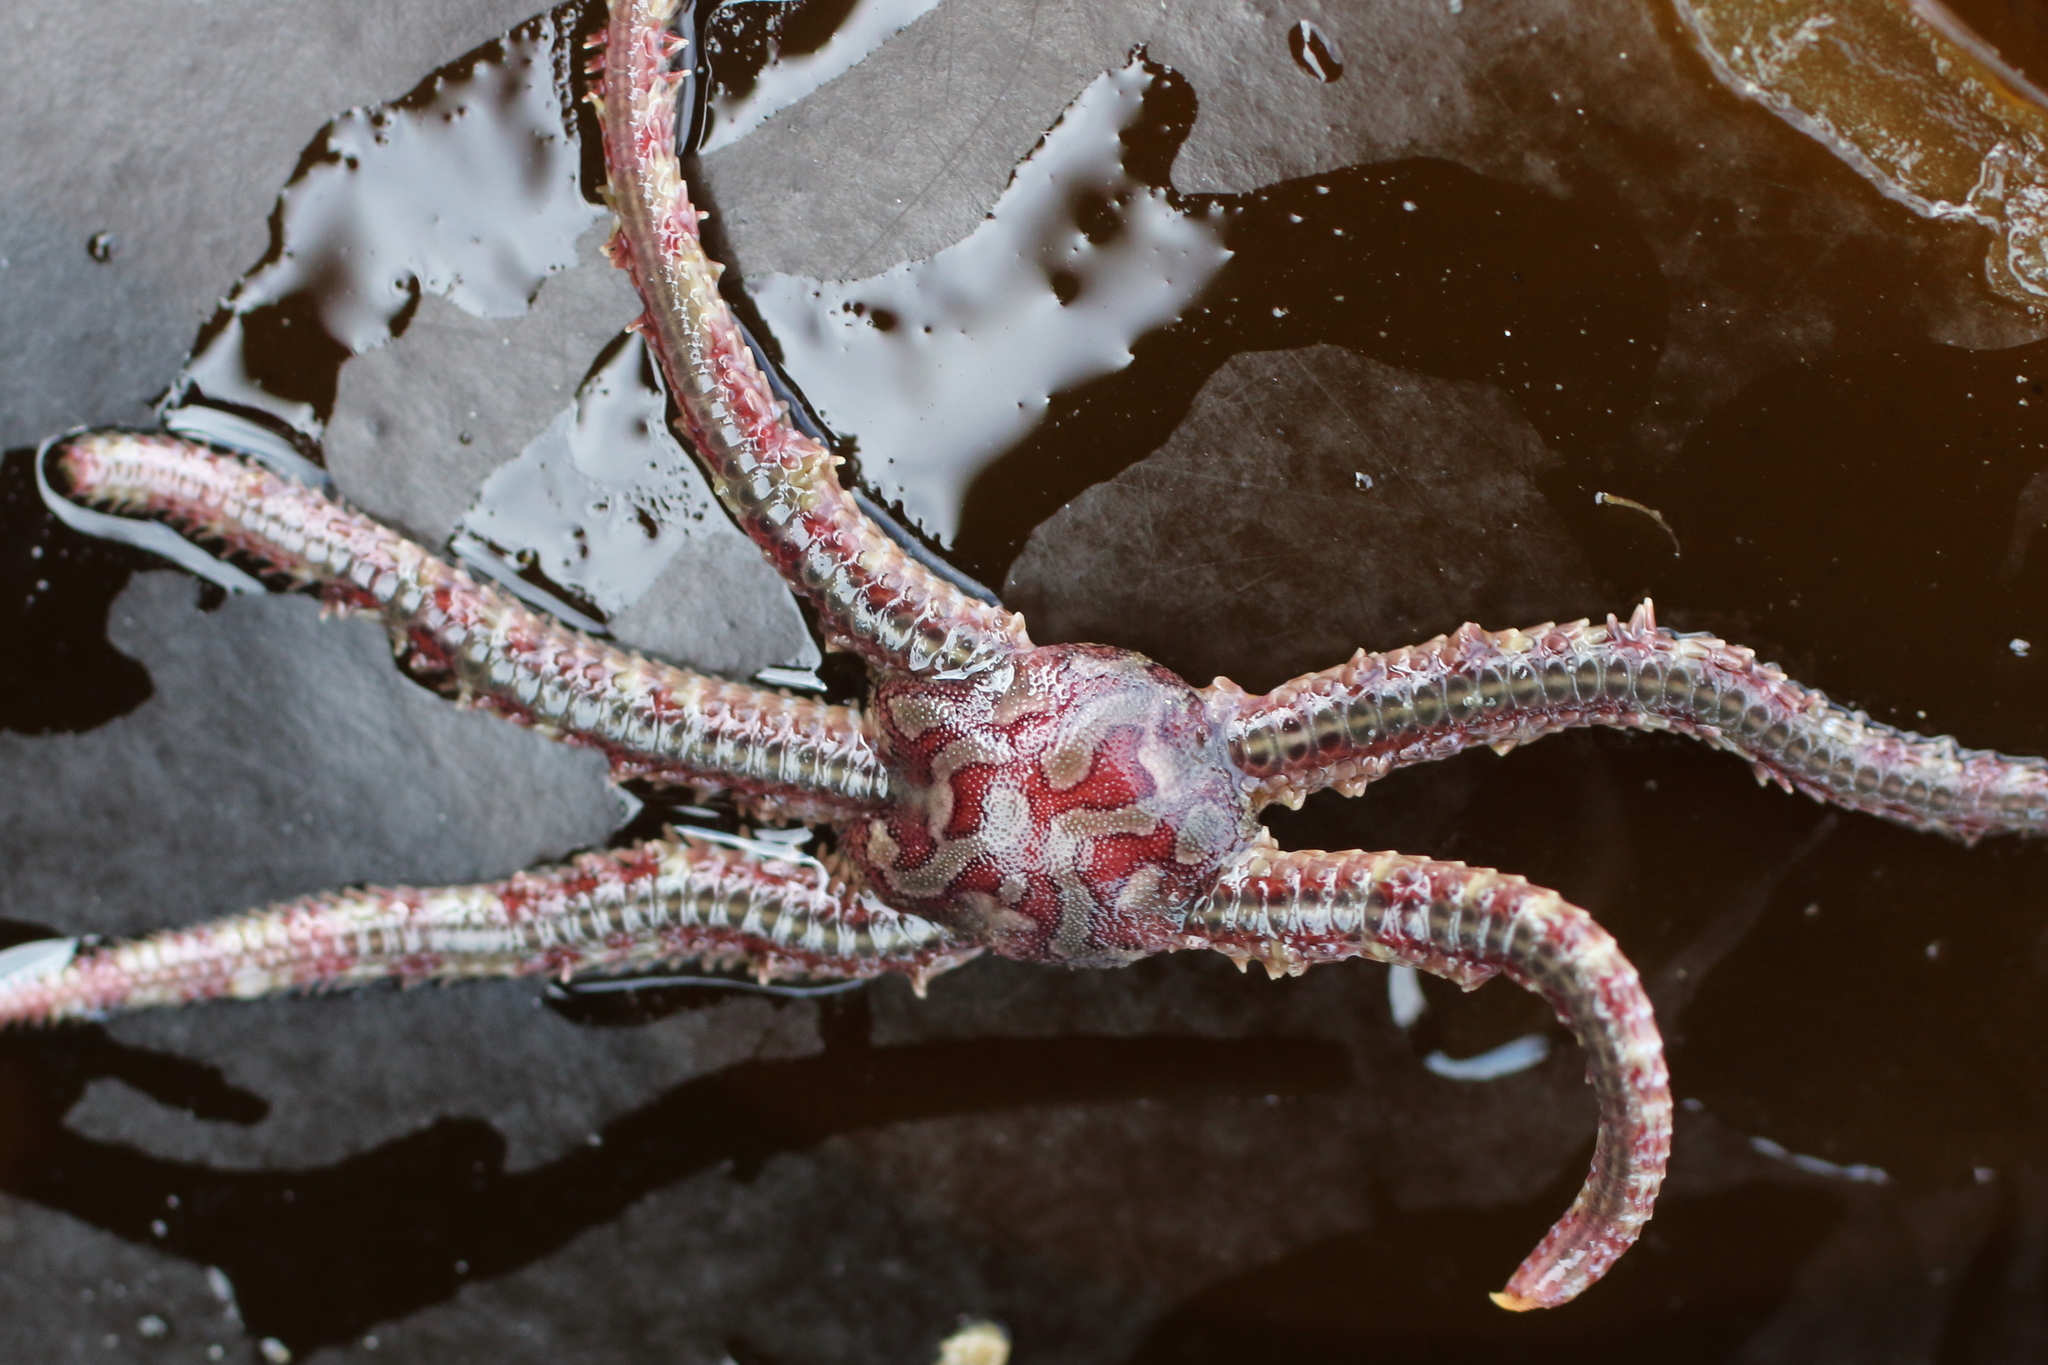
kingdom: Animalia
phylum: Echinodermata
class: Ophiuroidea
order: Amphilepidida
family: Ophiopholidae
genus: Ophiopholis
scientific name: Ophiopholis kennerlyi
